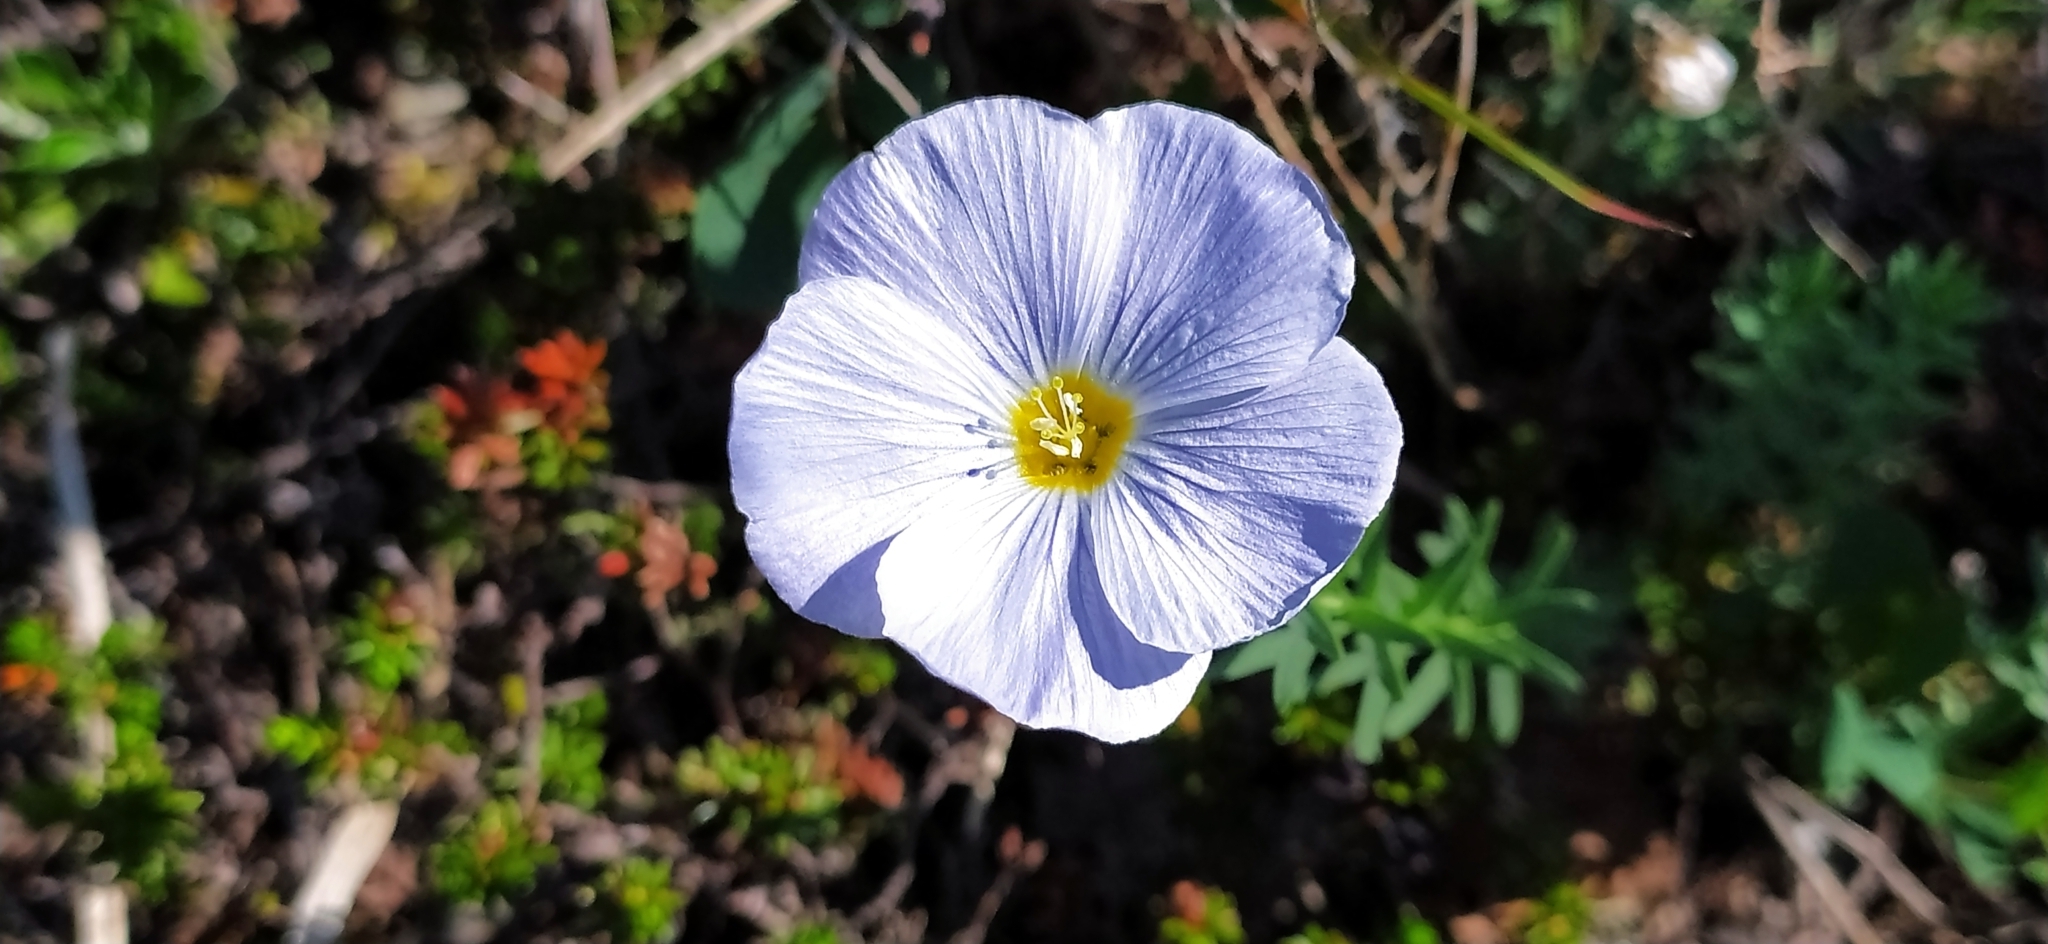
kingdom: Plantae
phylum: Tracheophyta
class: Magnoliopsida
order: Malpighiales
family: Linaceae
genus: Linum
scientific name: Linum komarovii
